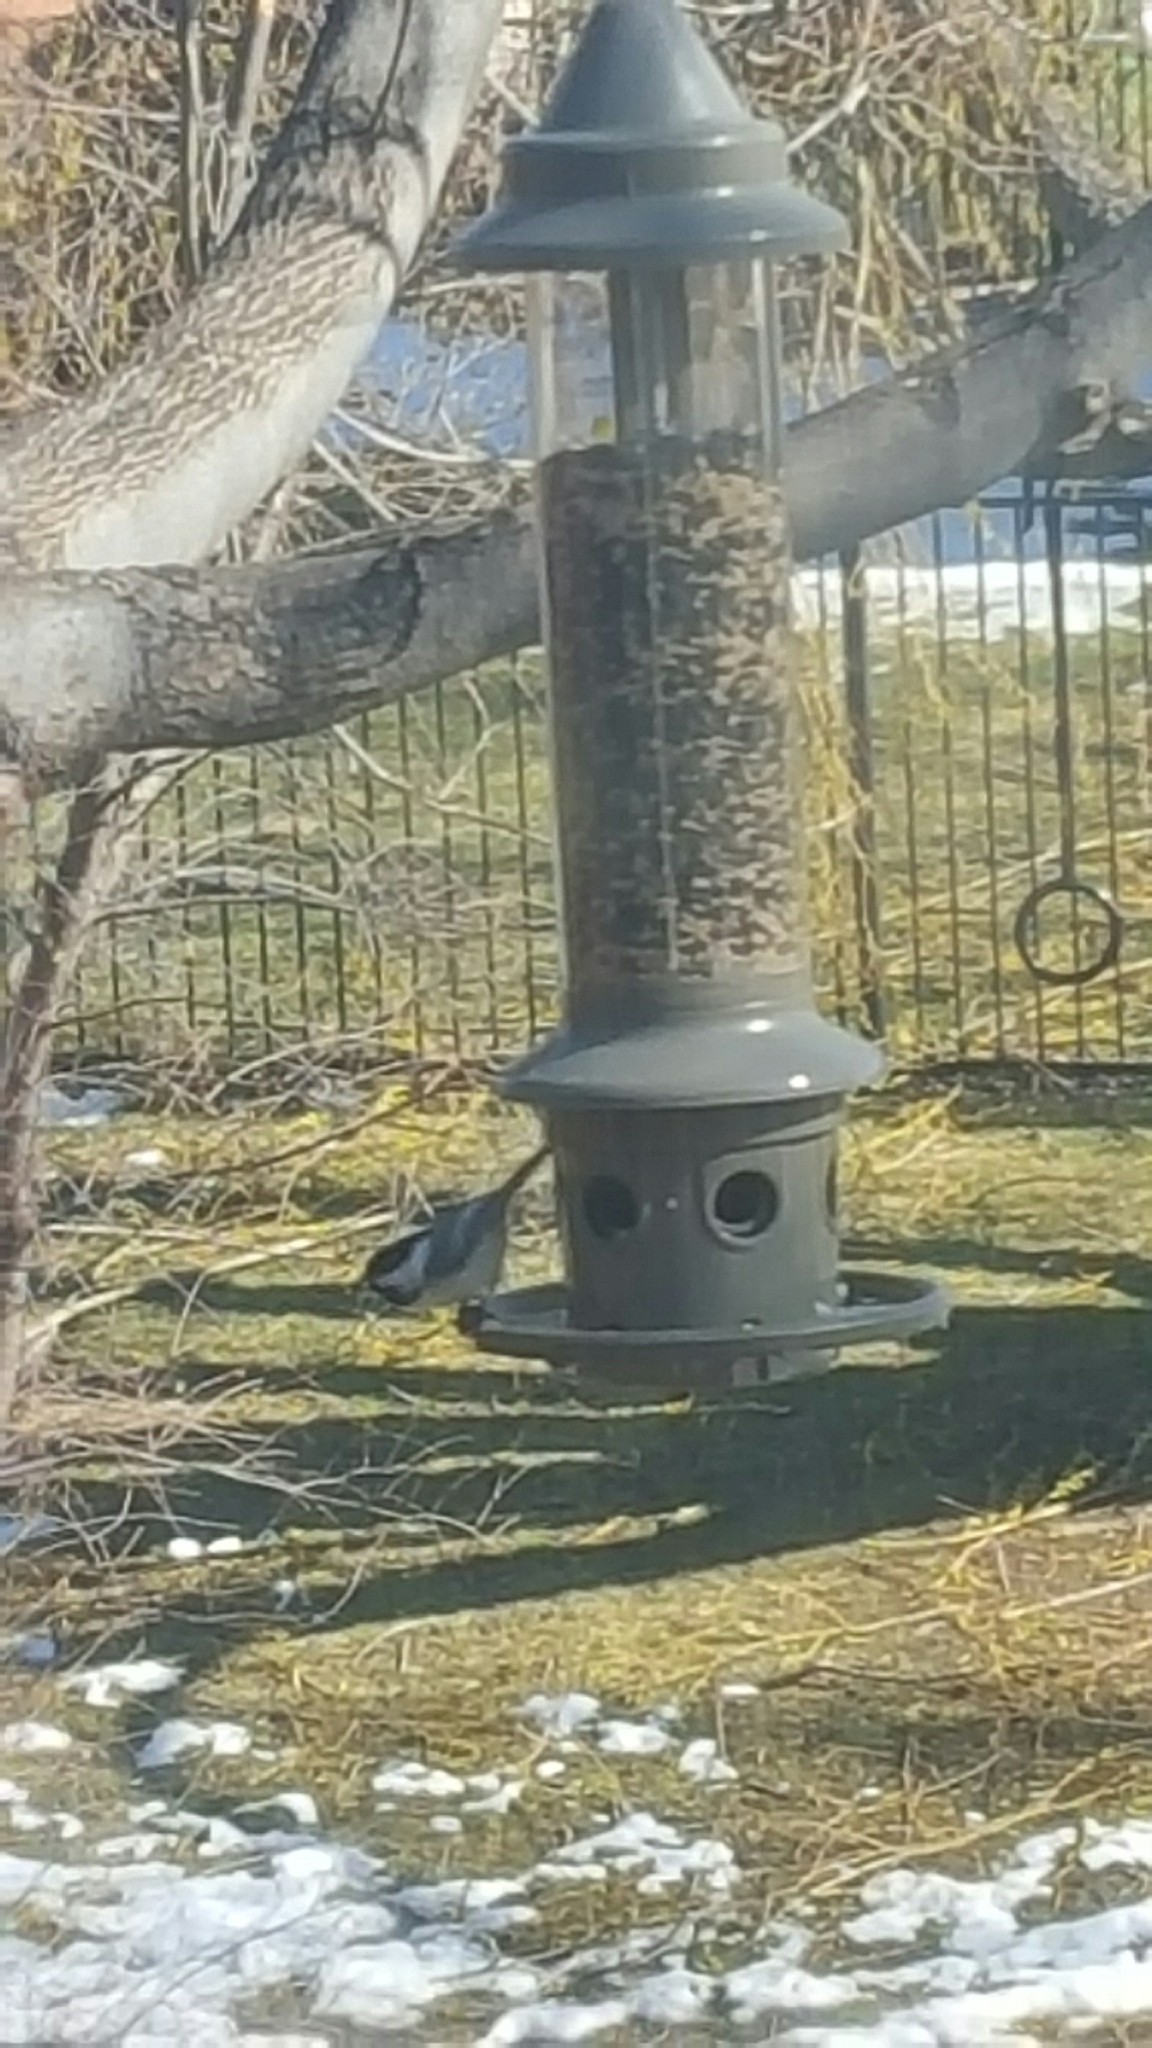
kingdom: Animalia
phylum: Chordata
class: Aves
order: Passeriformes
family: Paridae
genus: Poecile
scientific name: Poecile atricapillus
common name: Black-capped chickadee
